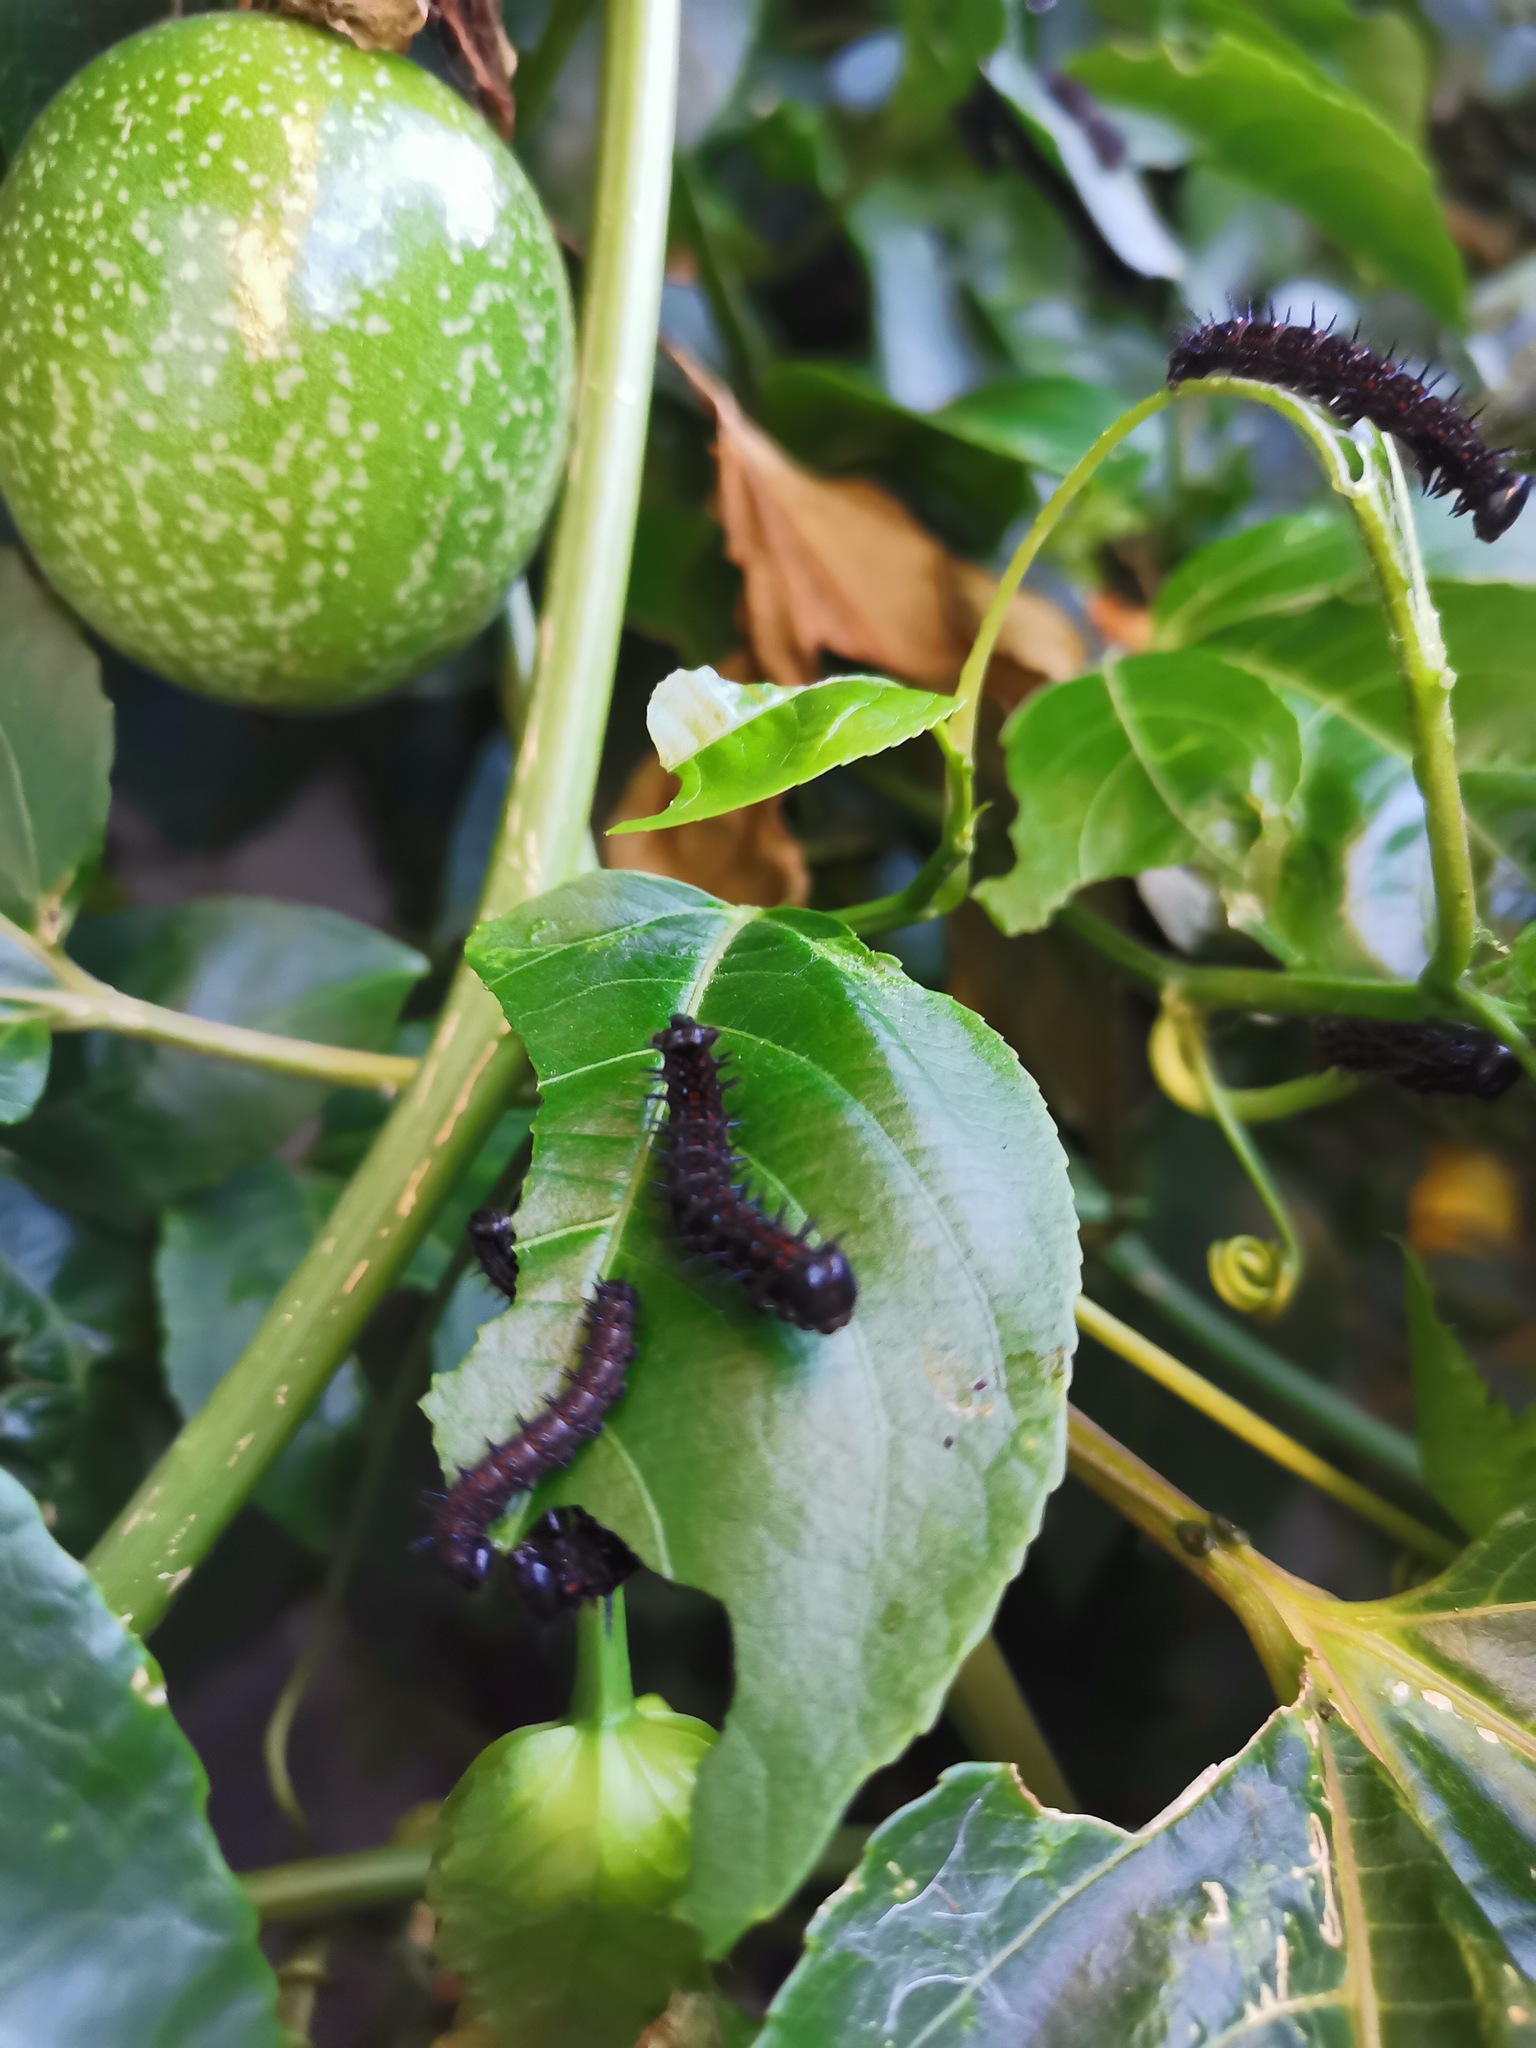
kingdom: Animalia
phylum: Arthropoda
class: Insecta
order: Lepidoptera
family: Nymphalidae
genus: Dione
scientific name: Dione juno
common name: Juno silverspot
